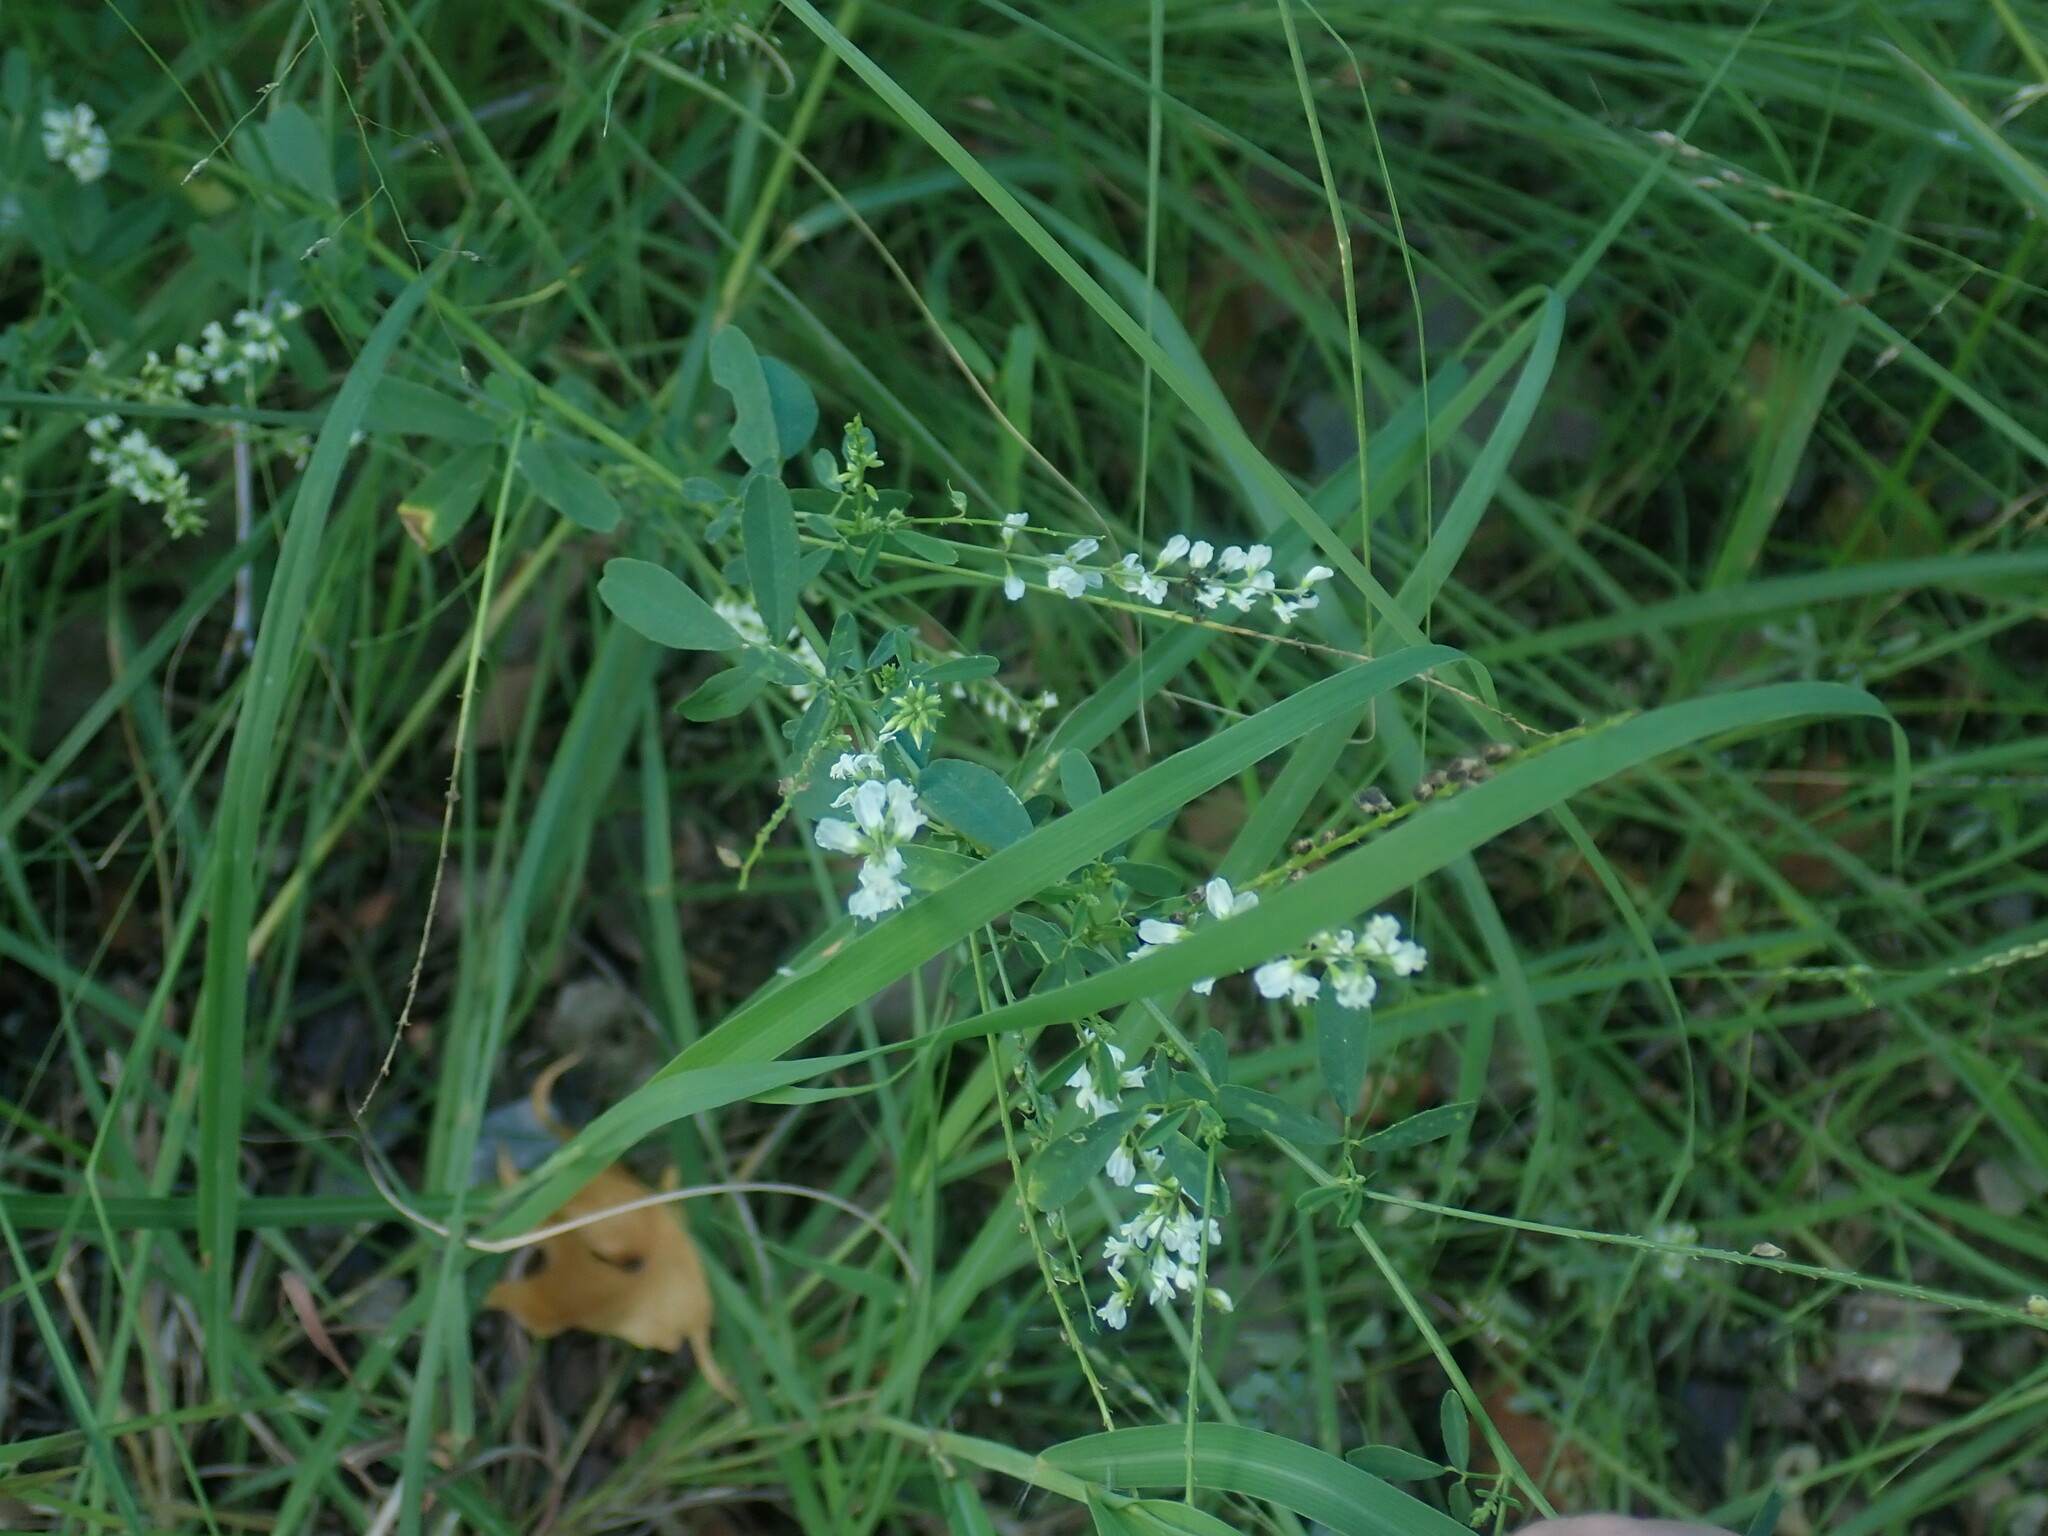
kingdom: Plantae
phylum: Tracheophyta
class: Magnoliopsida
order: Fabales
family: Fabaceae
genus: Melilotus
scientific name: Melilotus albus
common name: White melilot
